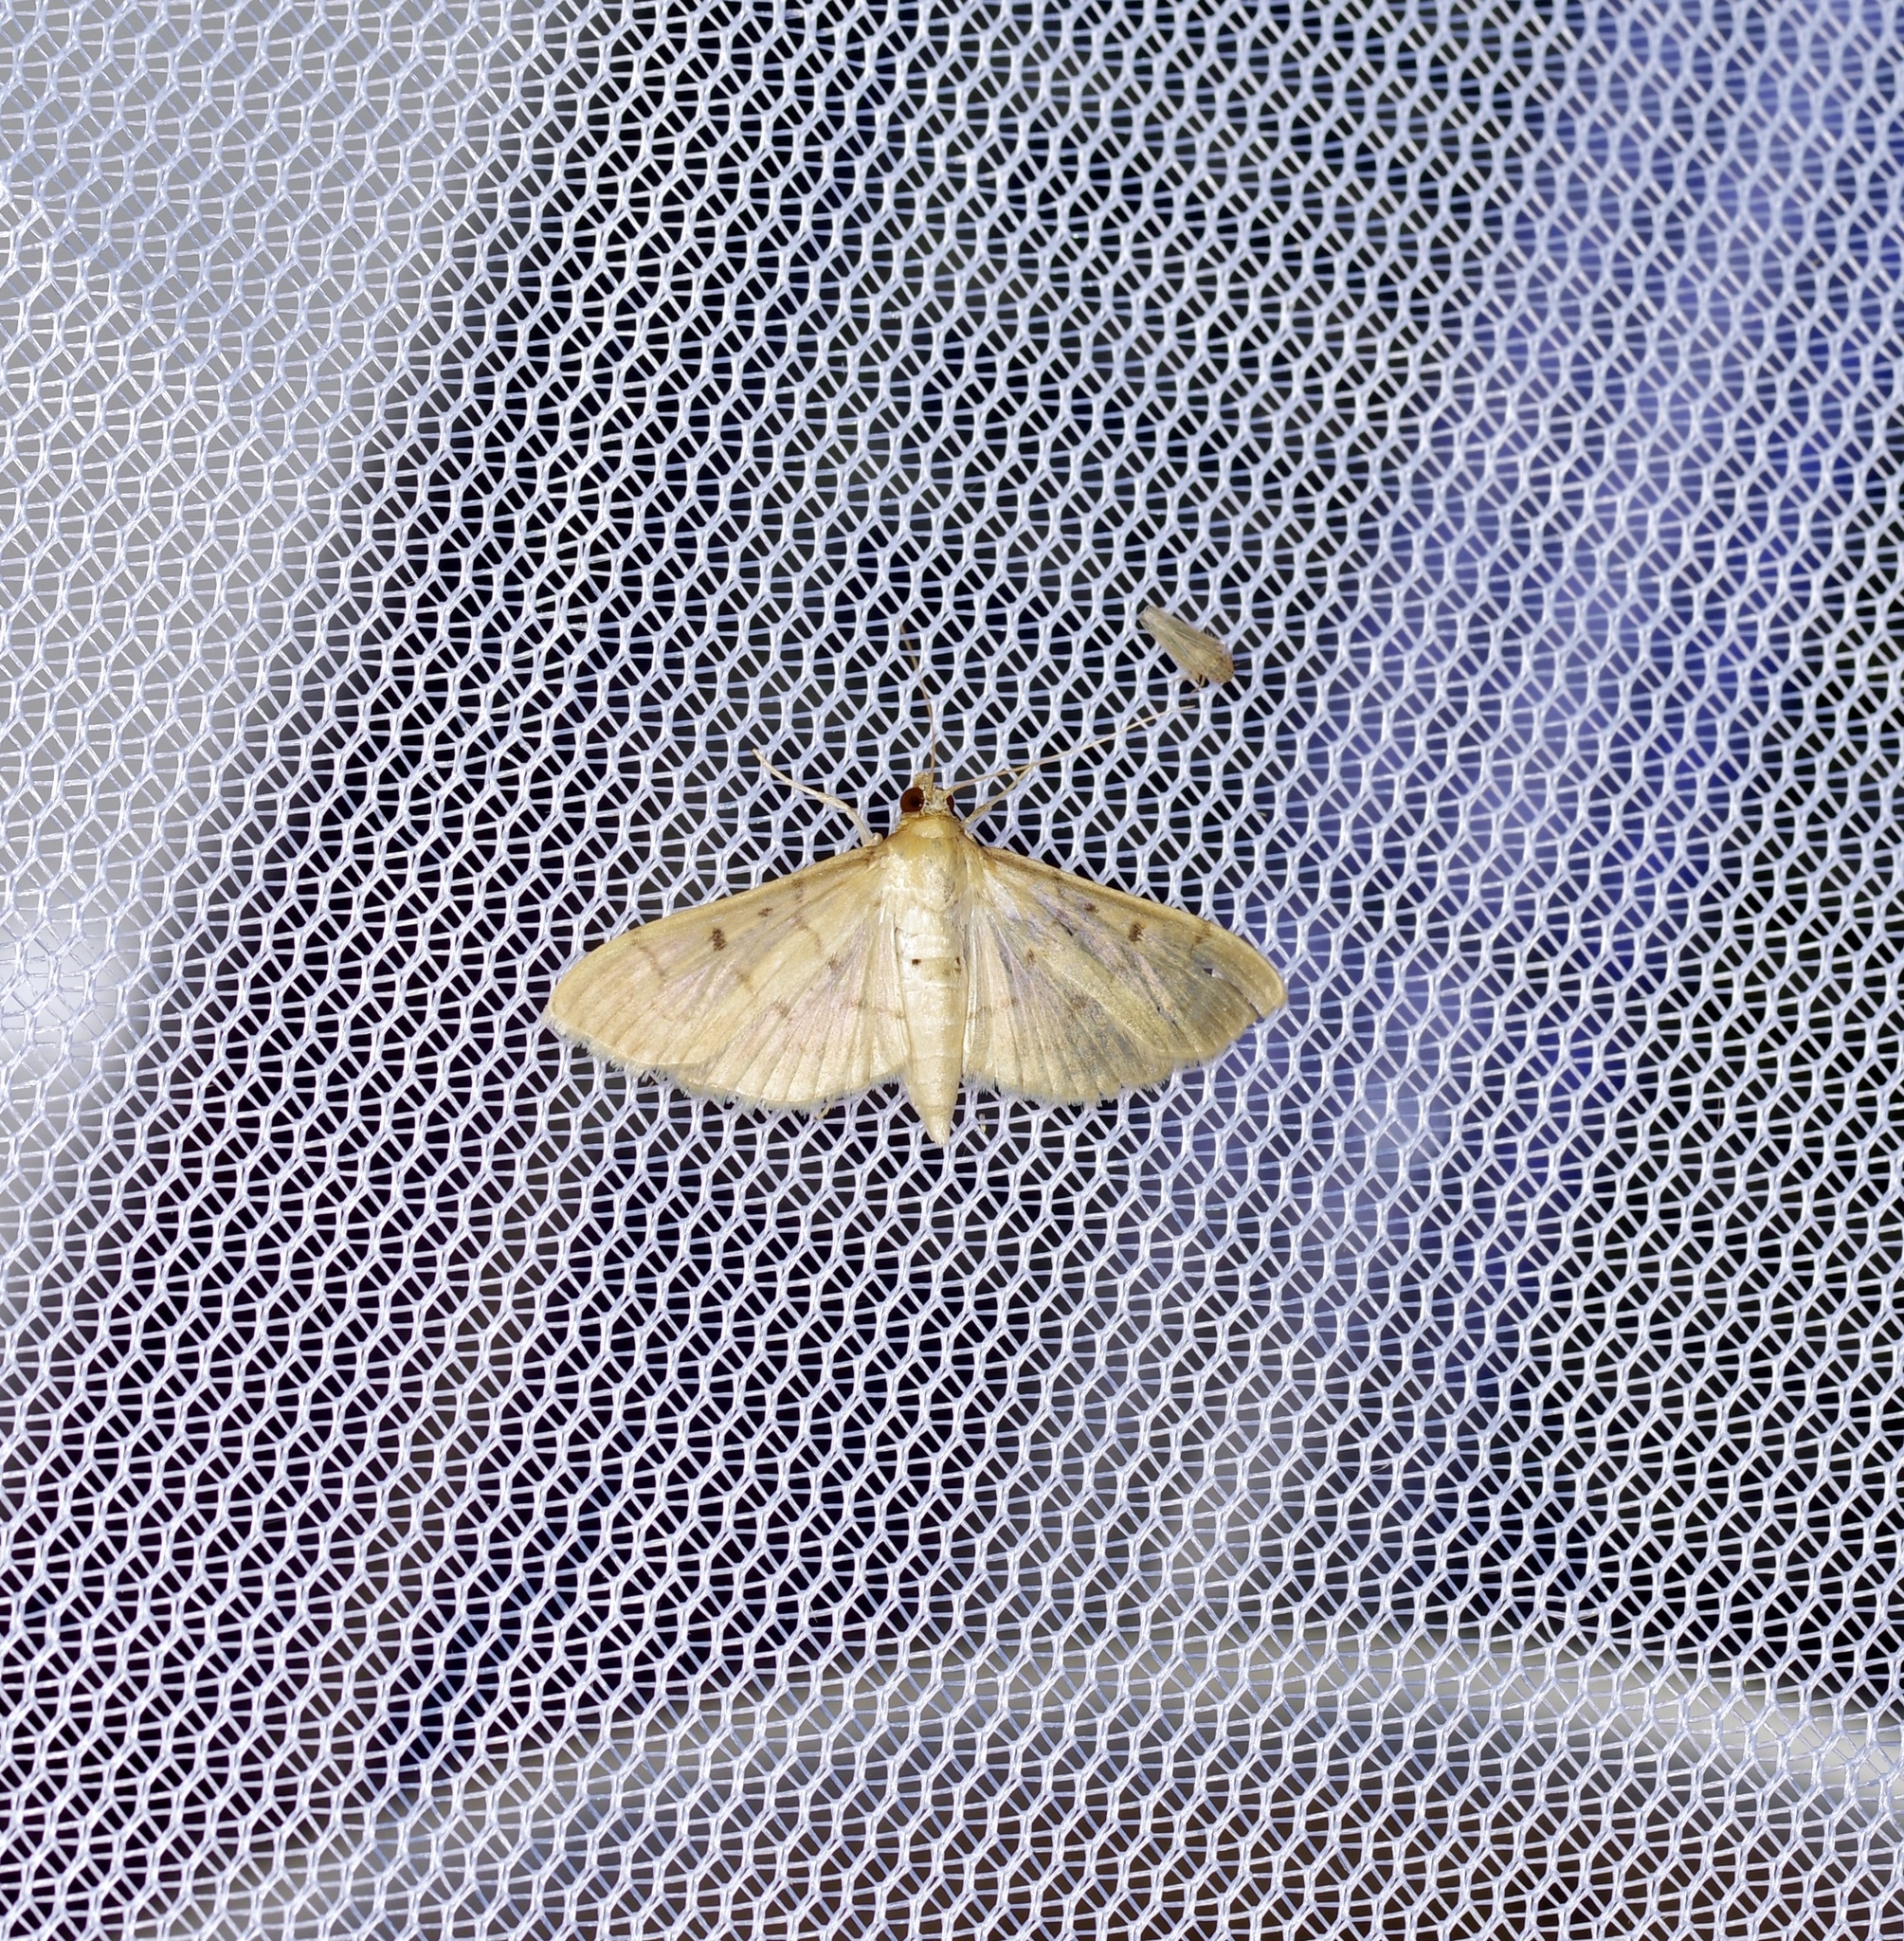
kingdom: Animalia
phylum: Arthropoda
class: Insecta
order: Lepidoptera
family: Crambidae
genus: Herpetogramma
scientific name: Herpetogramma bipunctalis
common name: Southern beet webworm
